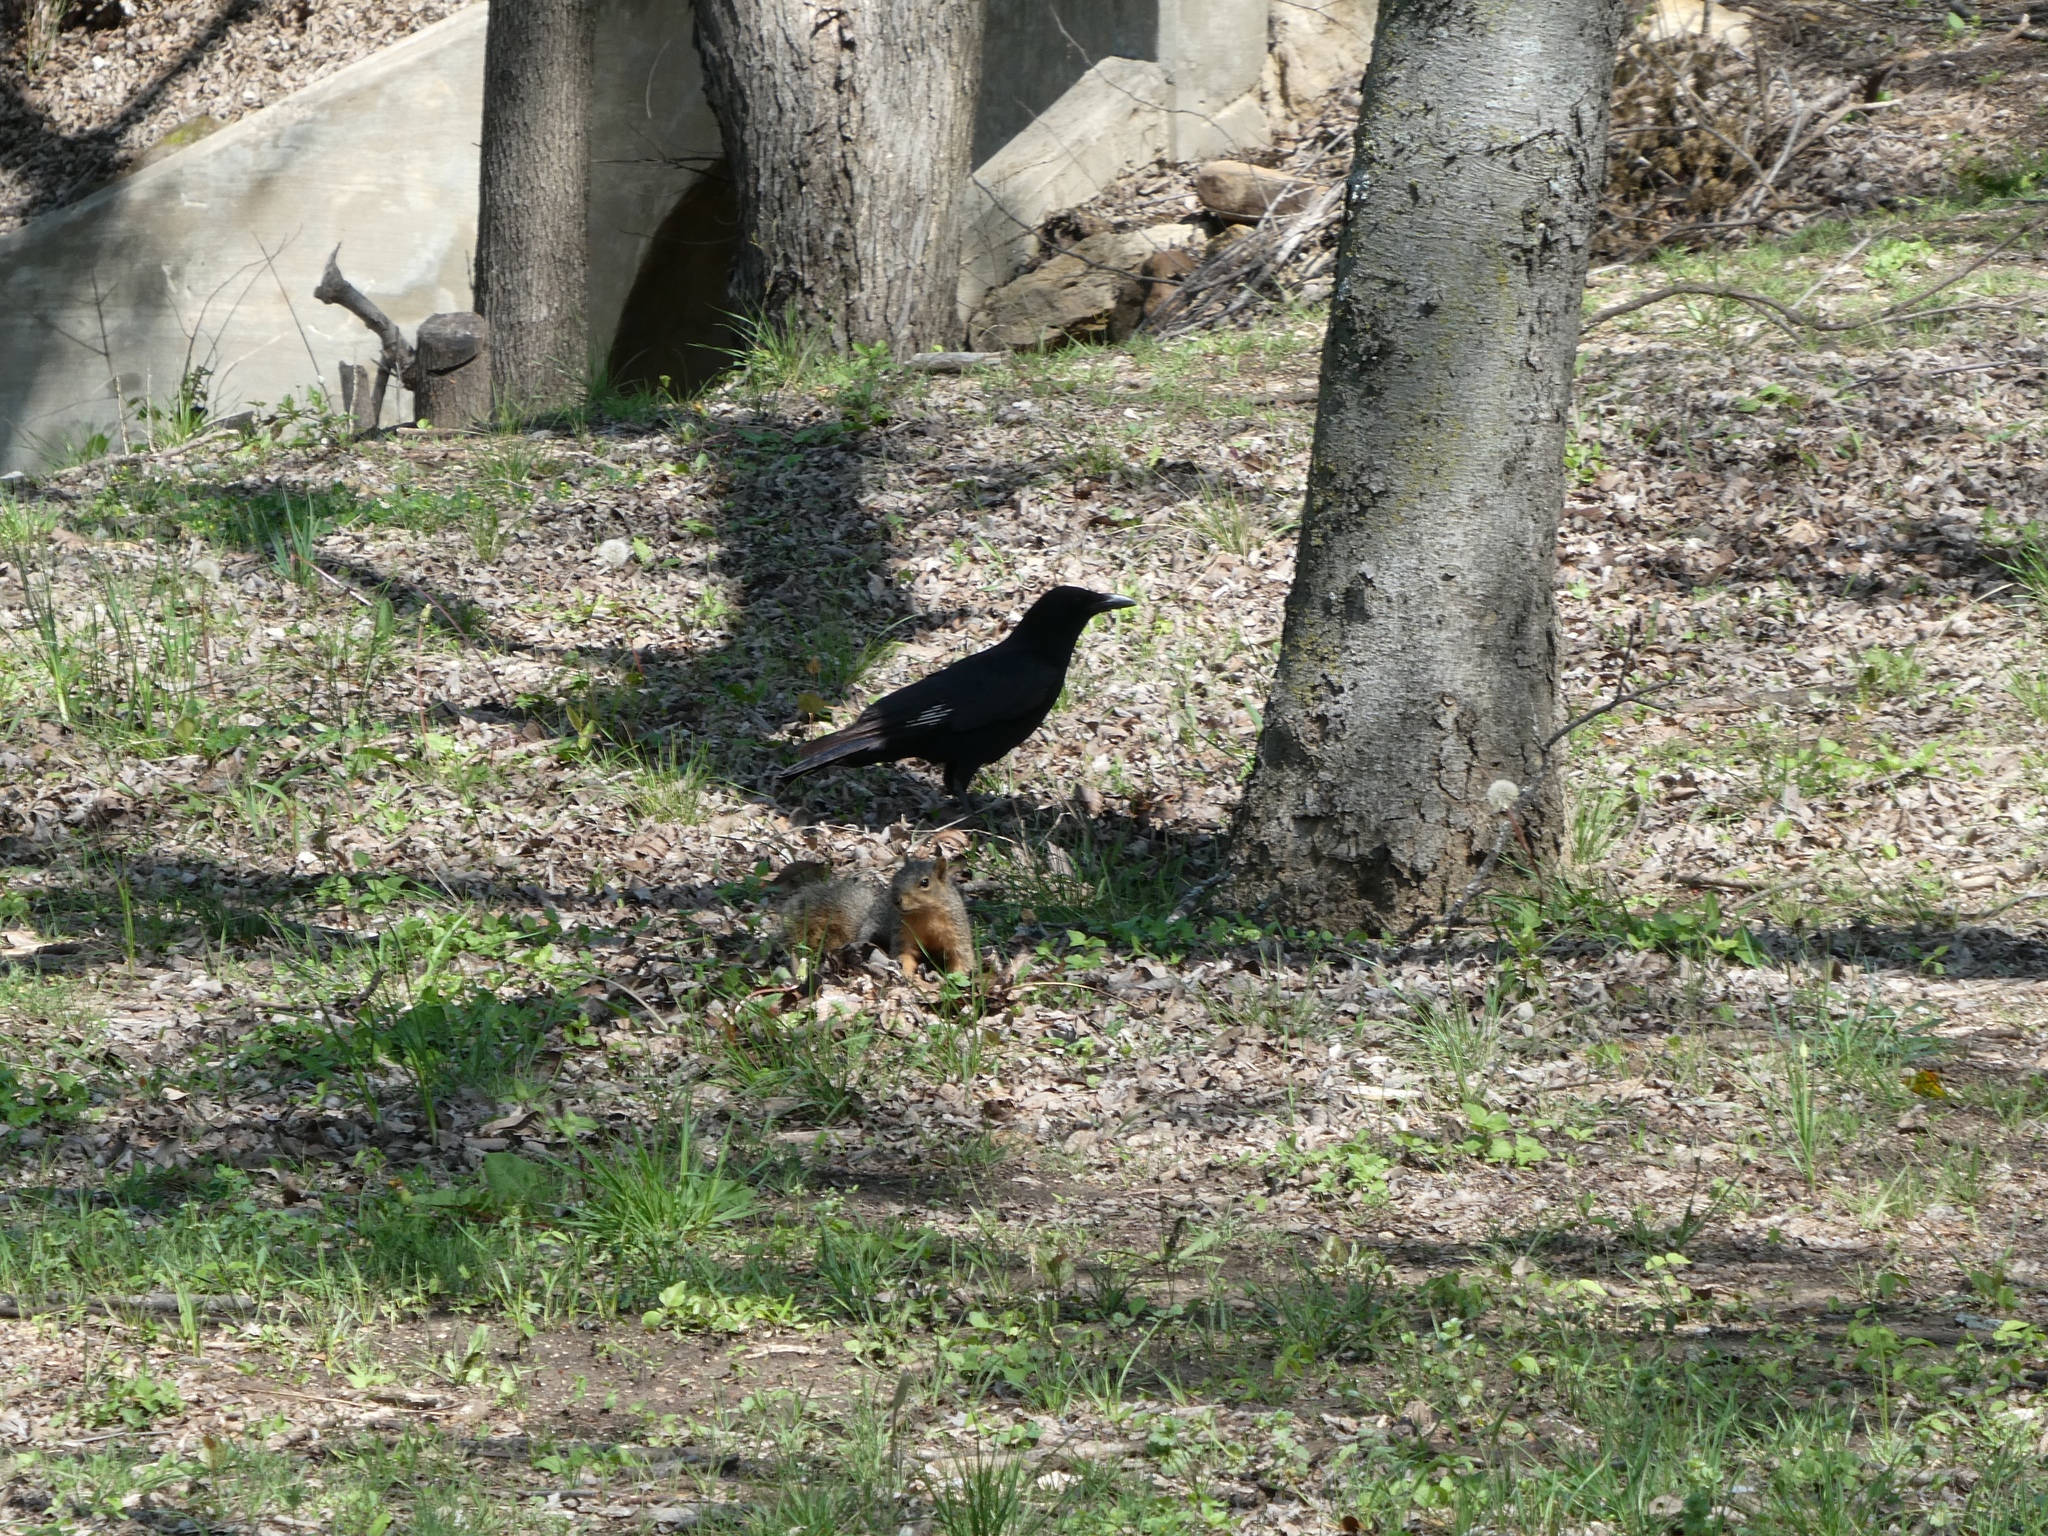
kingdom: Animalia
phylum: Chordata
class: Aves
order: Passeriformes
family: Corvidae
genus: Corvus
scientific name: Corvus brachyrhynchos
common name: American crow
